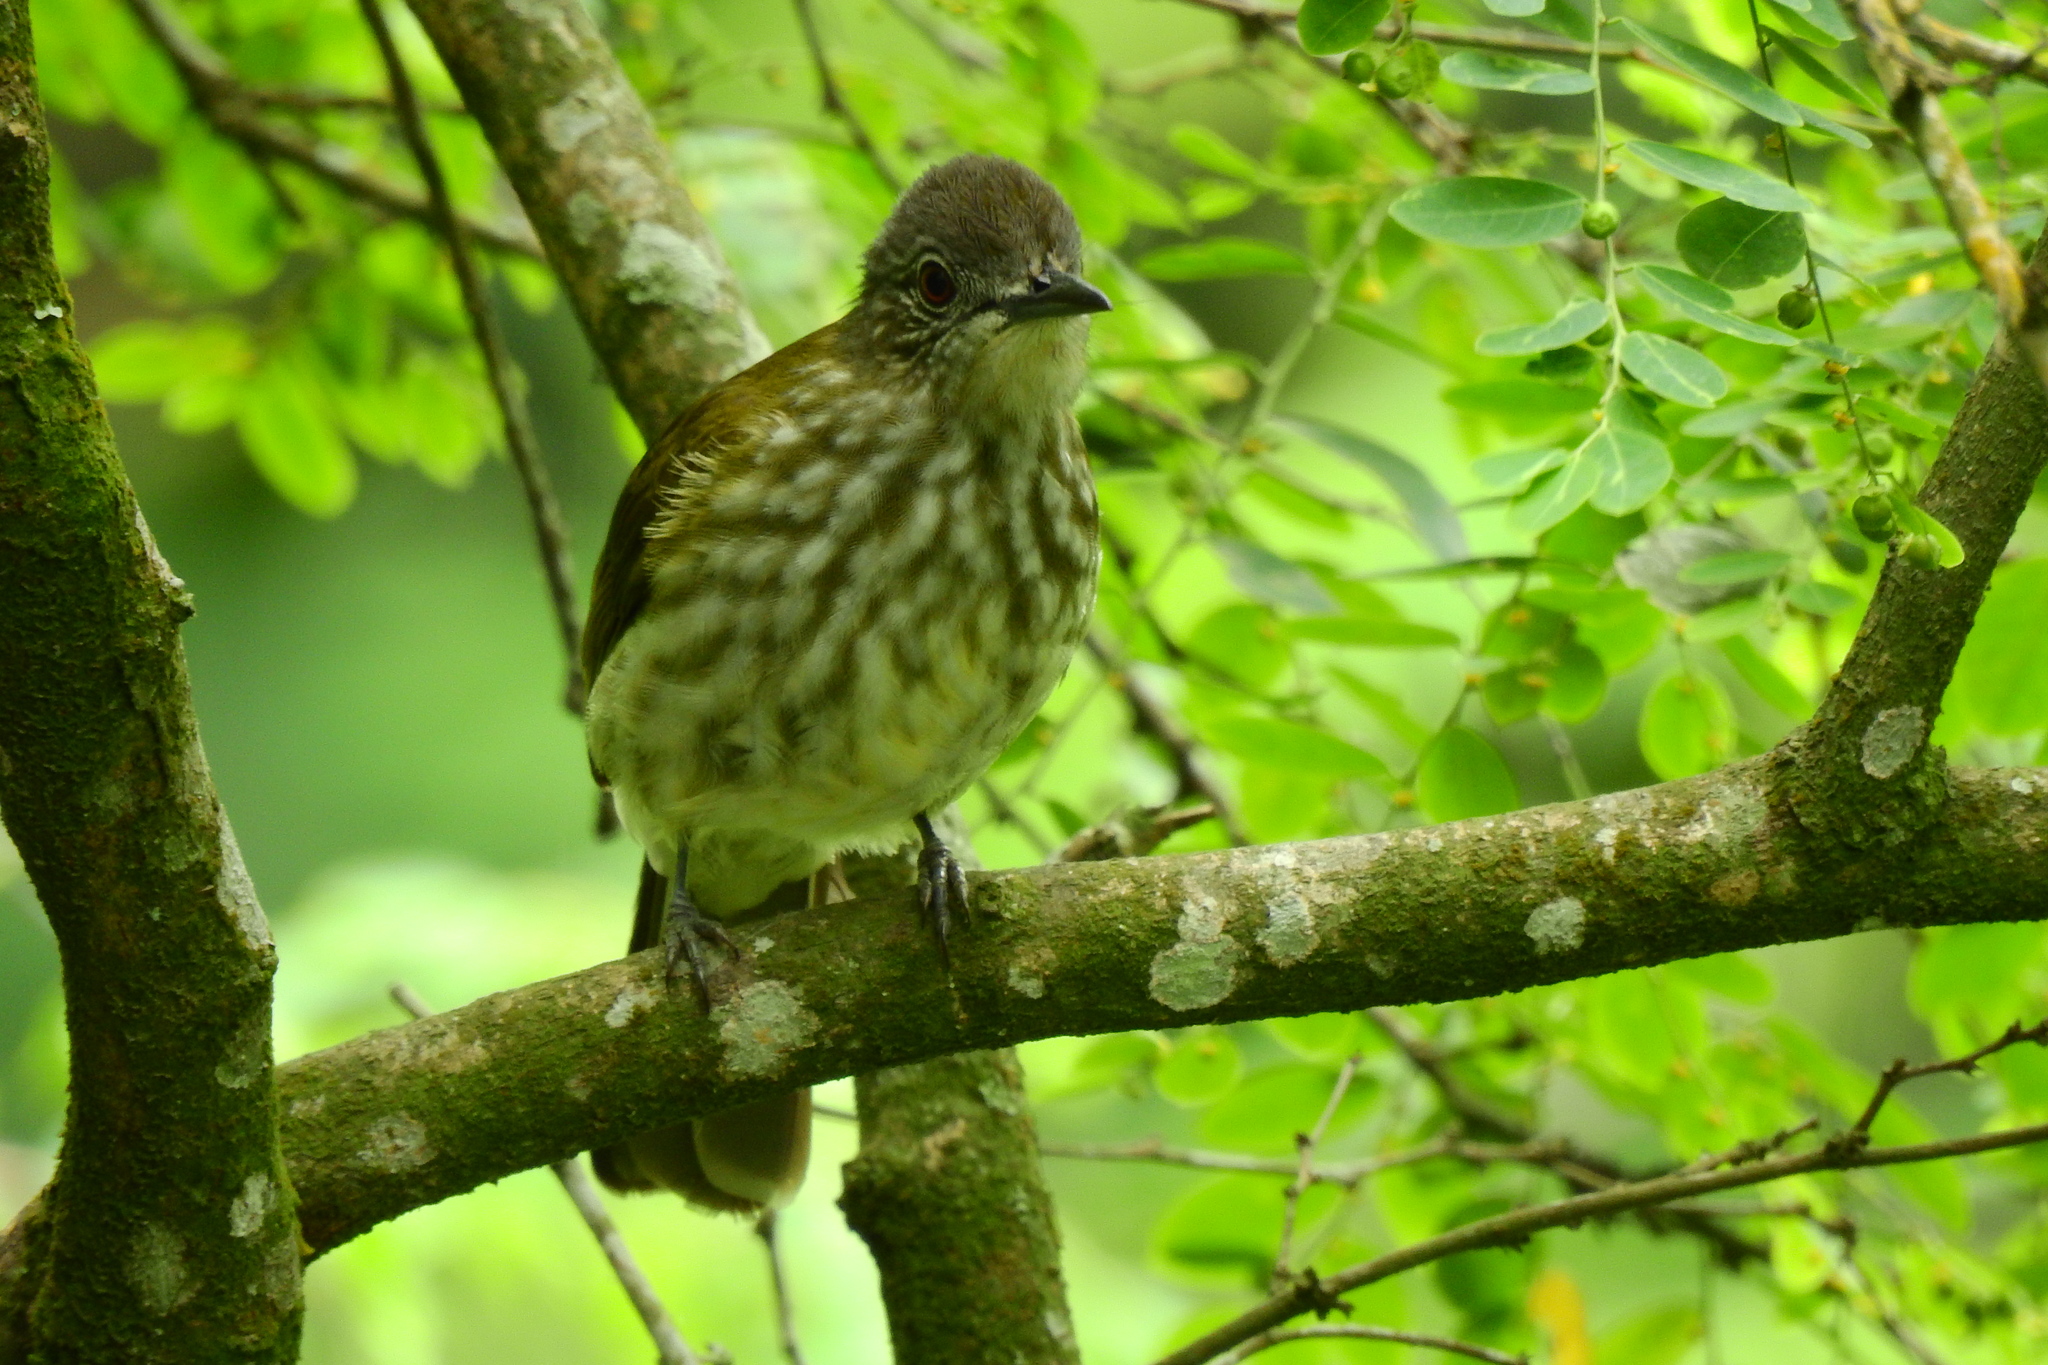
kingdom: Animalia
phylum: Chordata
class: Aves
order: Passeriformes
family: Pycnonotidae
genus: Ixos
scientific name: Ixos virescens
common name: Sunda bulbul
